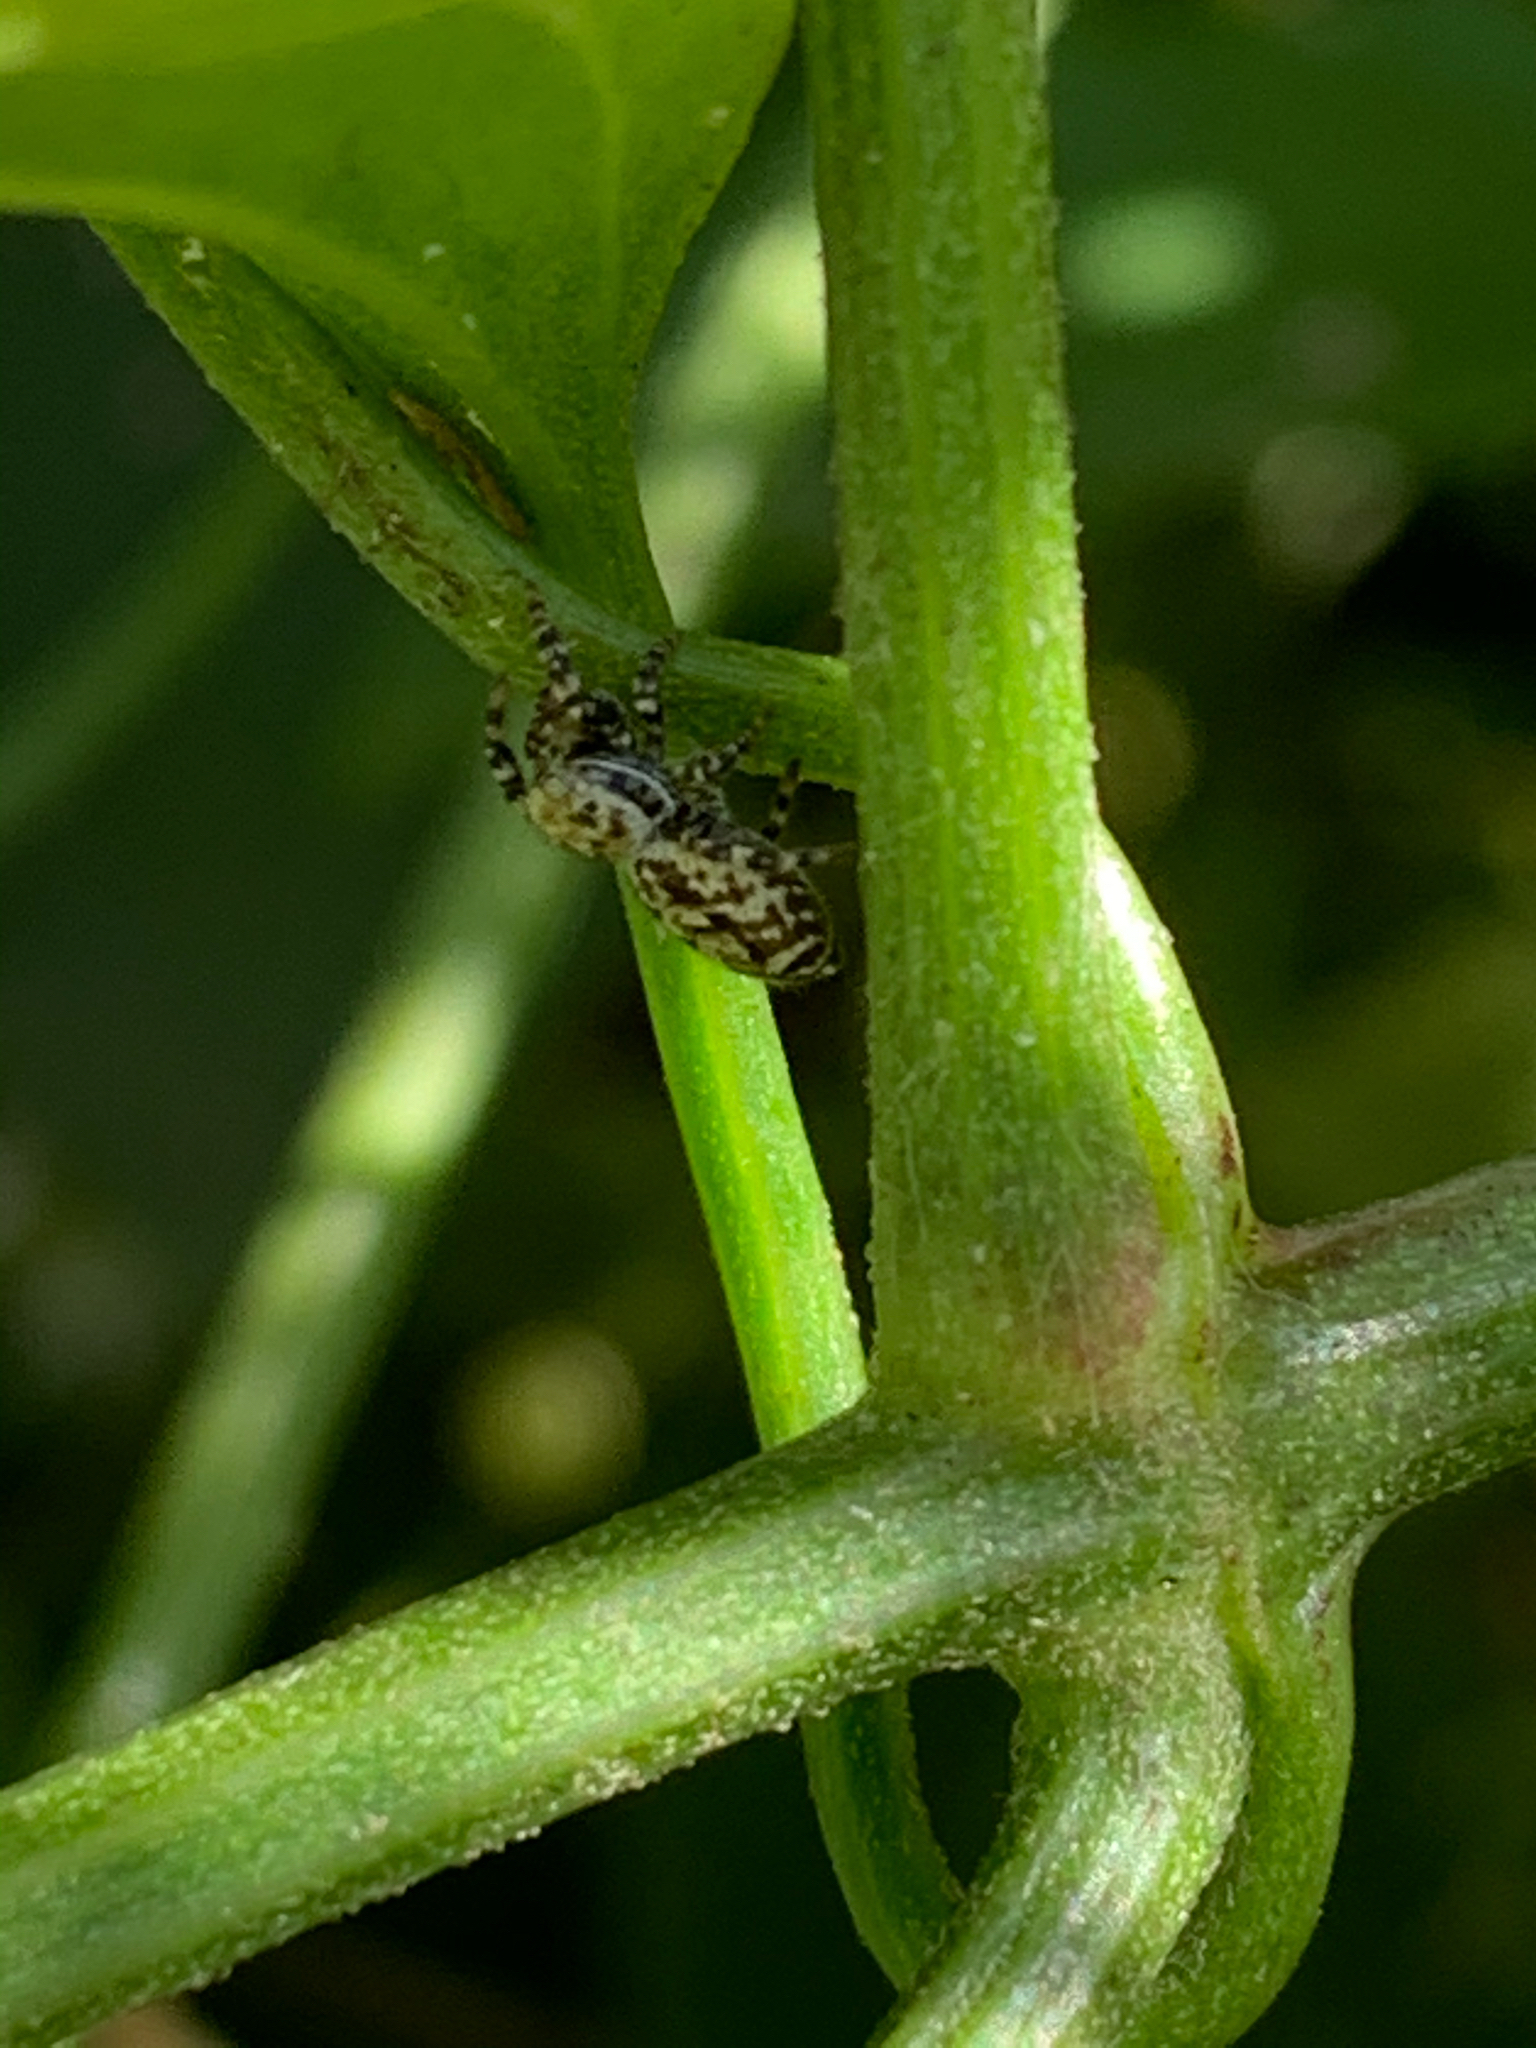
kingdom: Animalia
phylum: Arthropoda
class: Arachnida
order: Araneae
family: Salticidae
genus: Pelegrina
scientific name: Pelegrina galathea
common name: Jumping spiders
